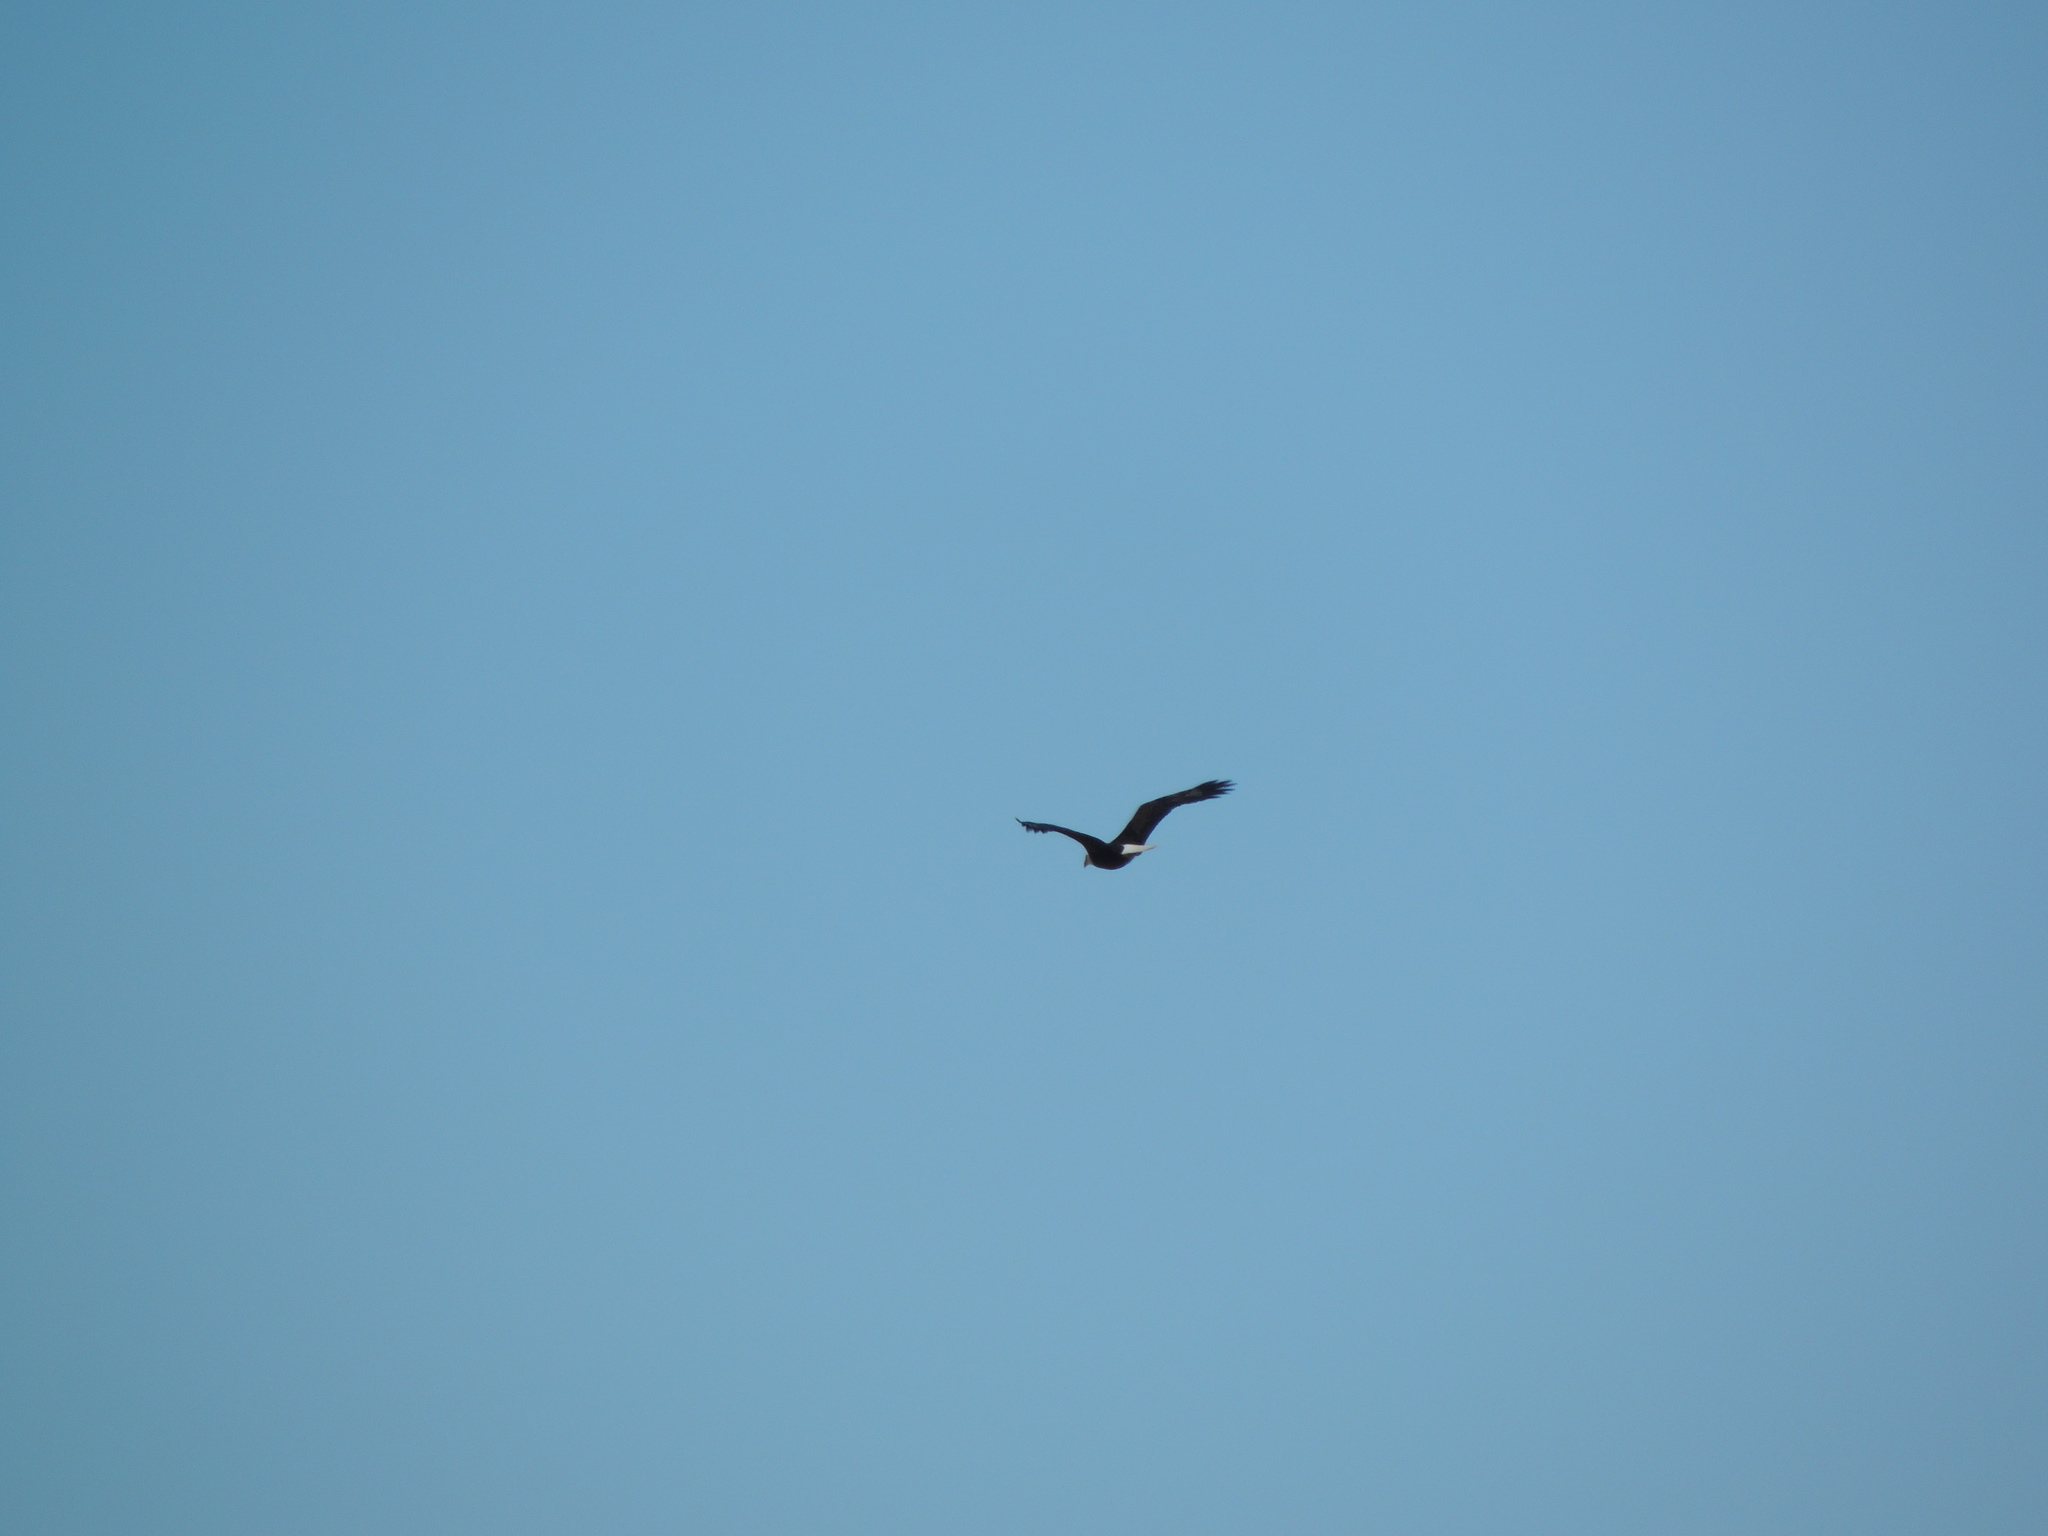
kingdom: Animalia
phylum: Chordata
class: Aves
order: Accipitriformes
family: Accipitridae
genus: Haliaeetus
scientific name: Haliaeetus leucocephalus
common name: Bald eagle
